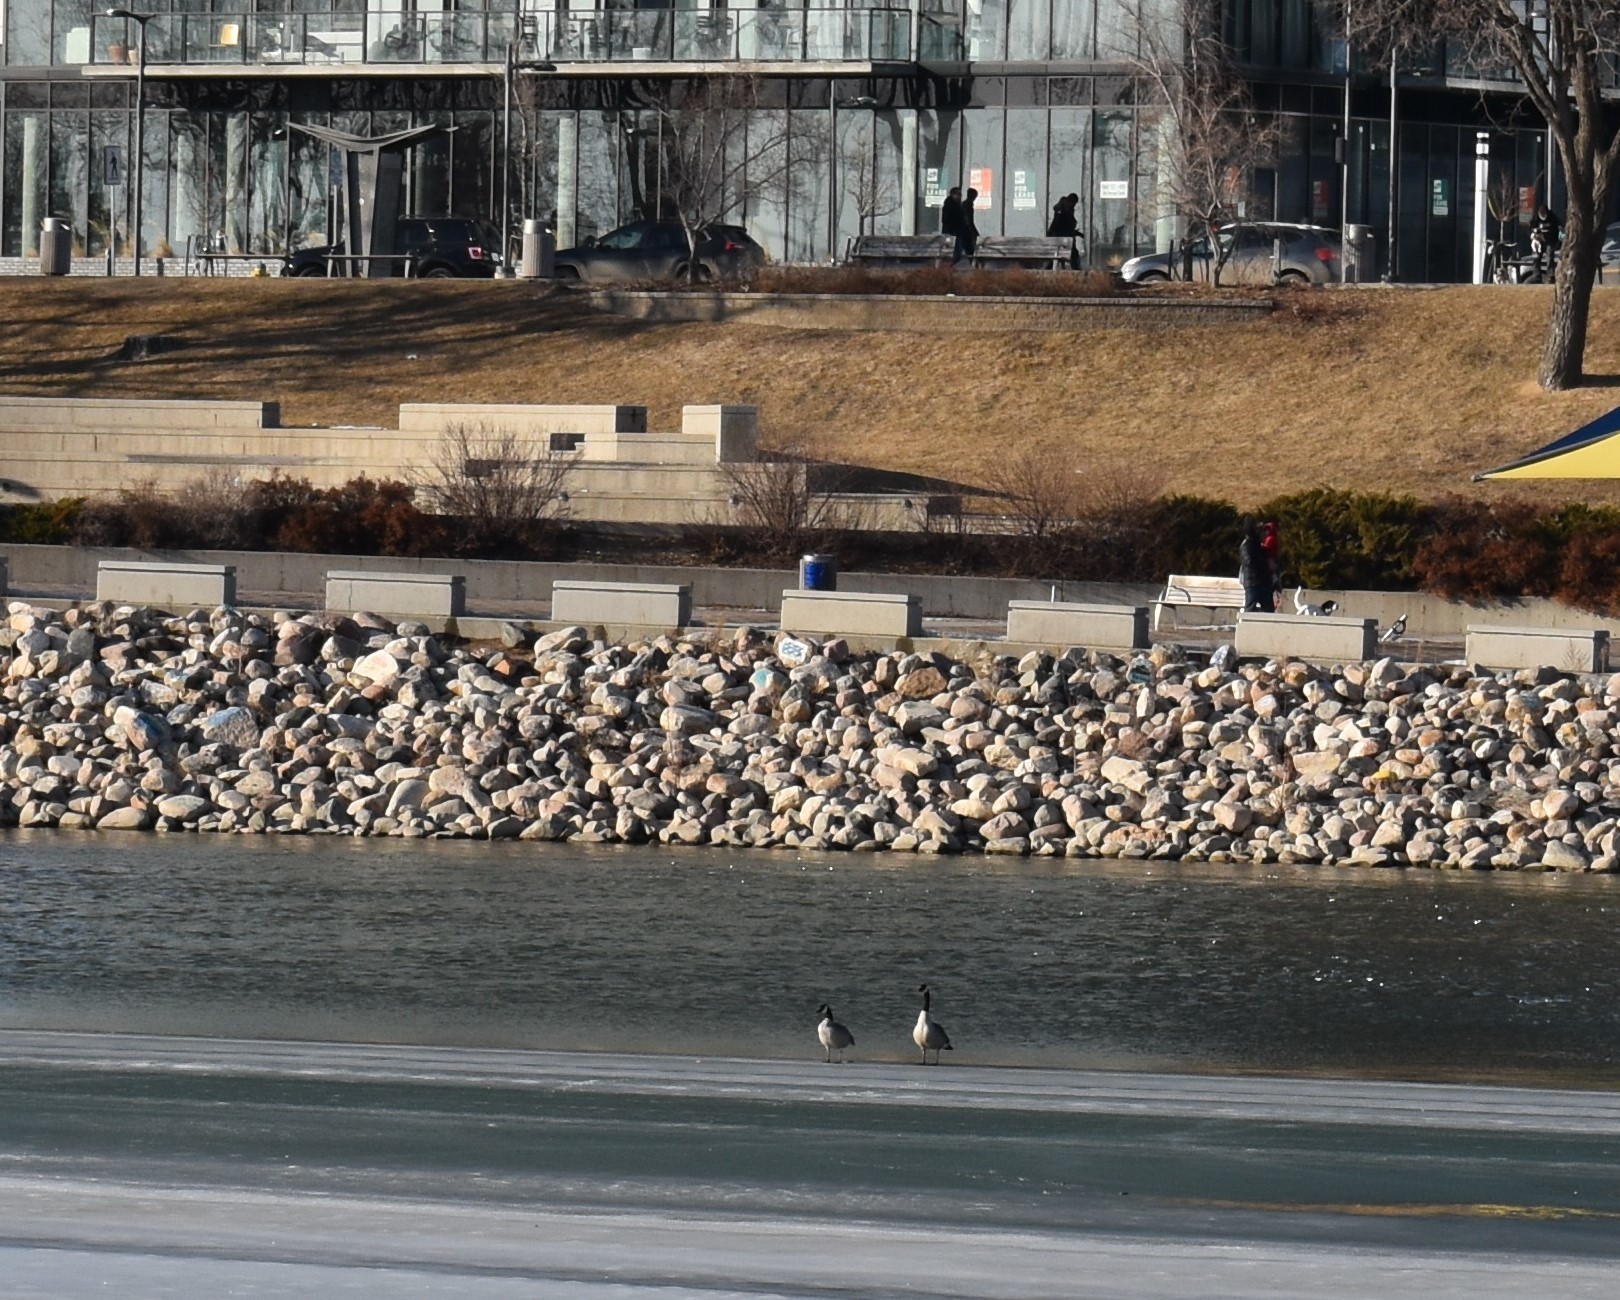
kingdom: Animalia
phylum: Chordata
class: Aves
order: Anseriformes
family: Anatidae
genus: Branta
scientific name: Branta canadensis
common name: Canada goose
